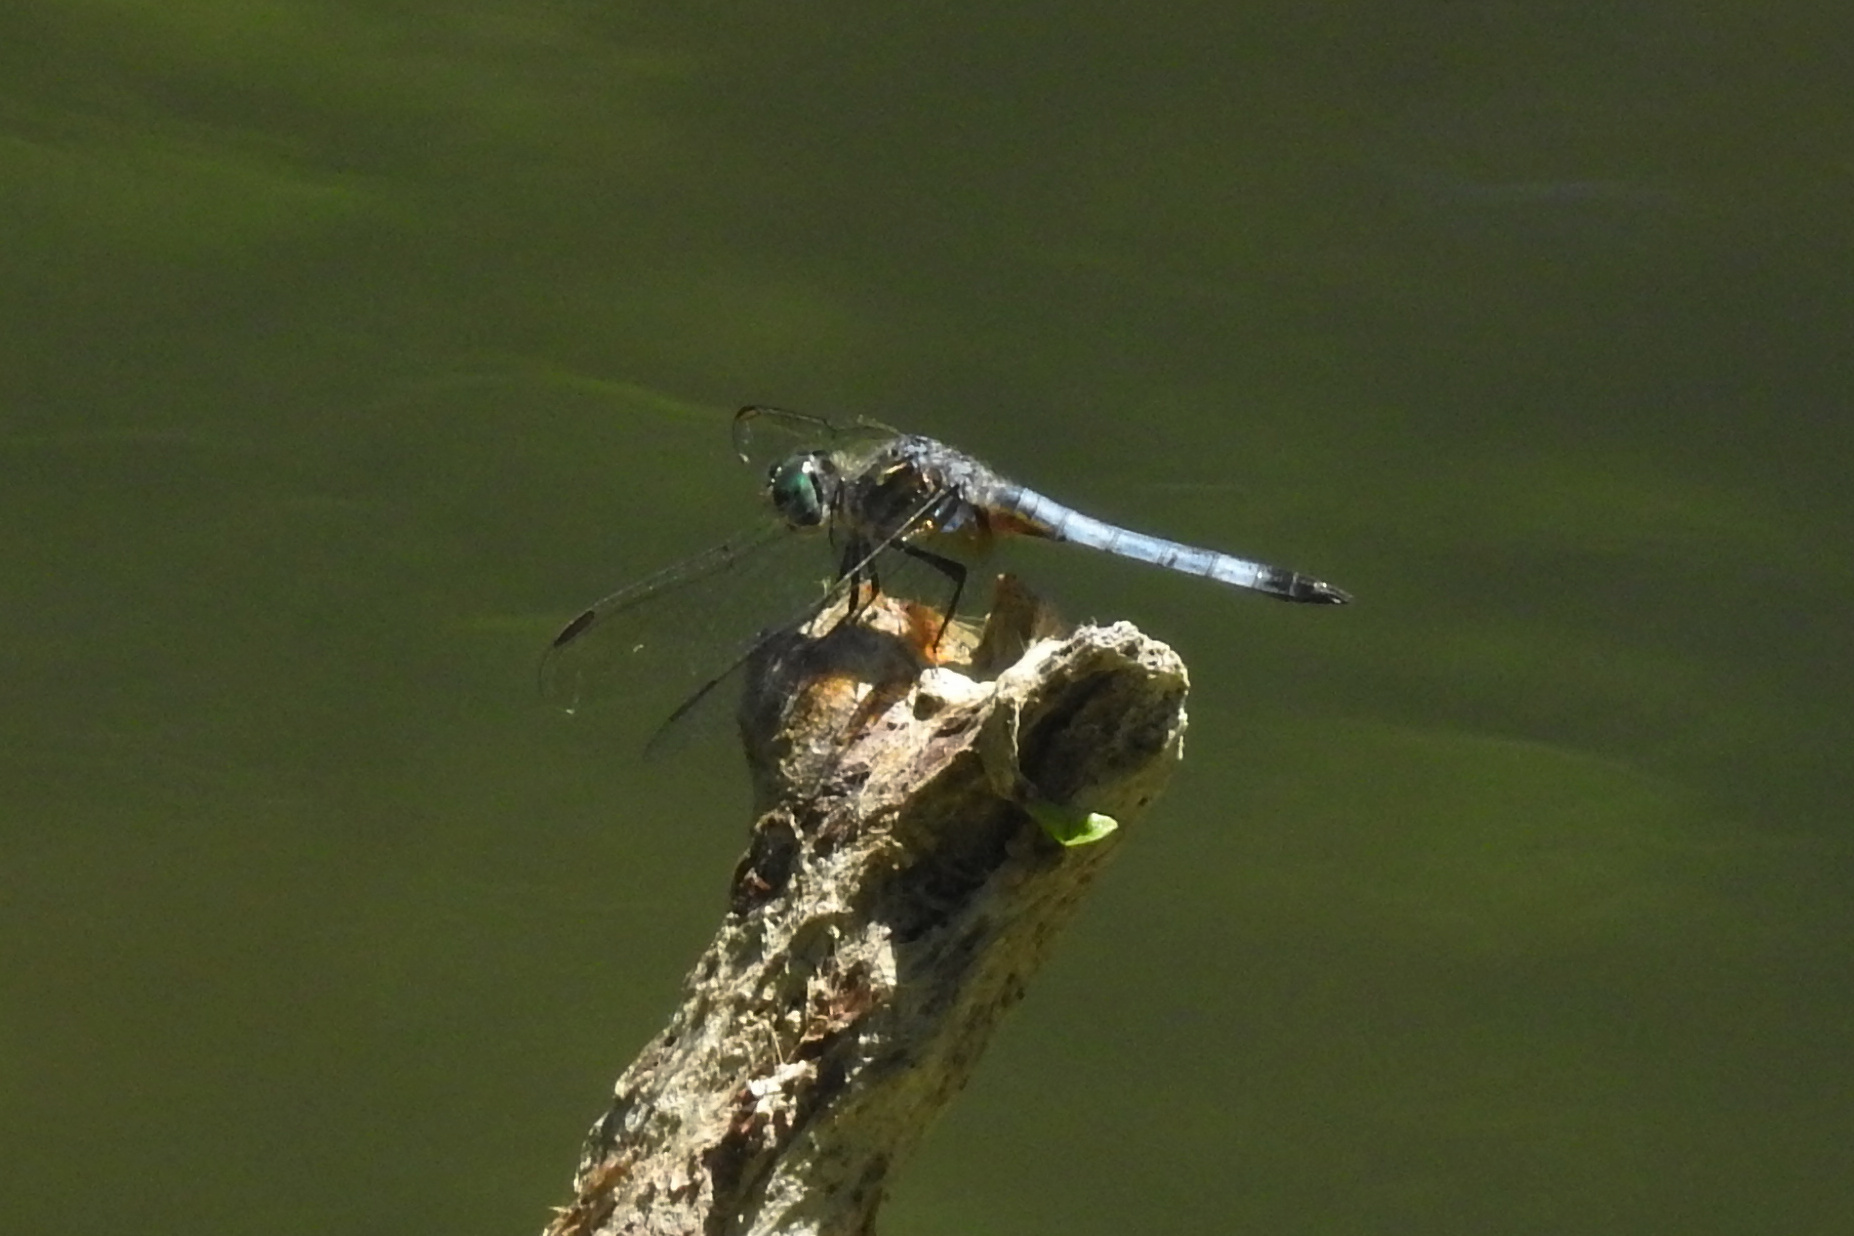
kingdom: Animalia
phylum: Arthropoda
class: Insecta
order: Odonata
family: Libellulidae
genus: Pachydiplax
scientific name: Pachydiplax longipennis
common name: Blue dasher
